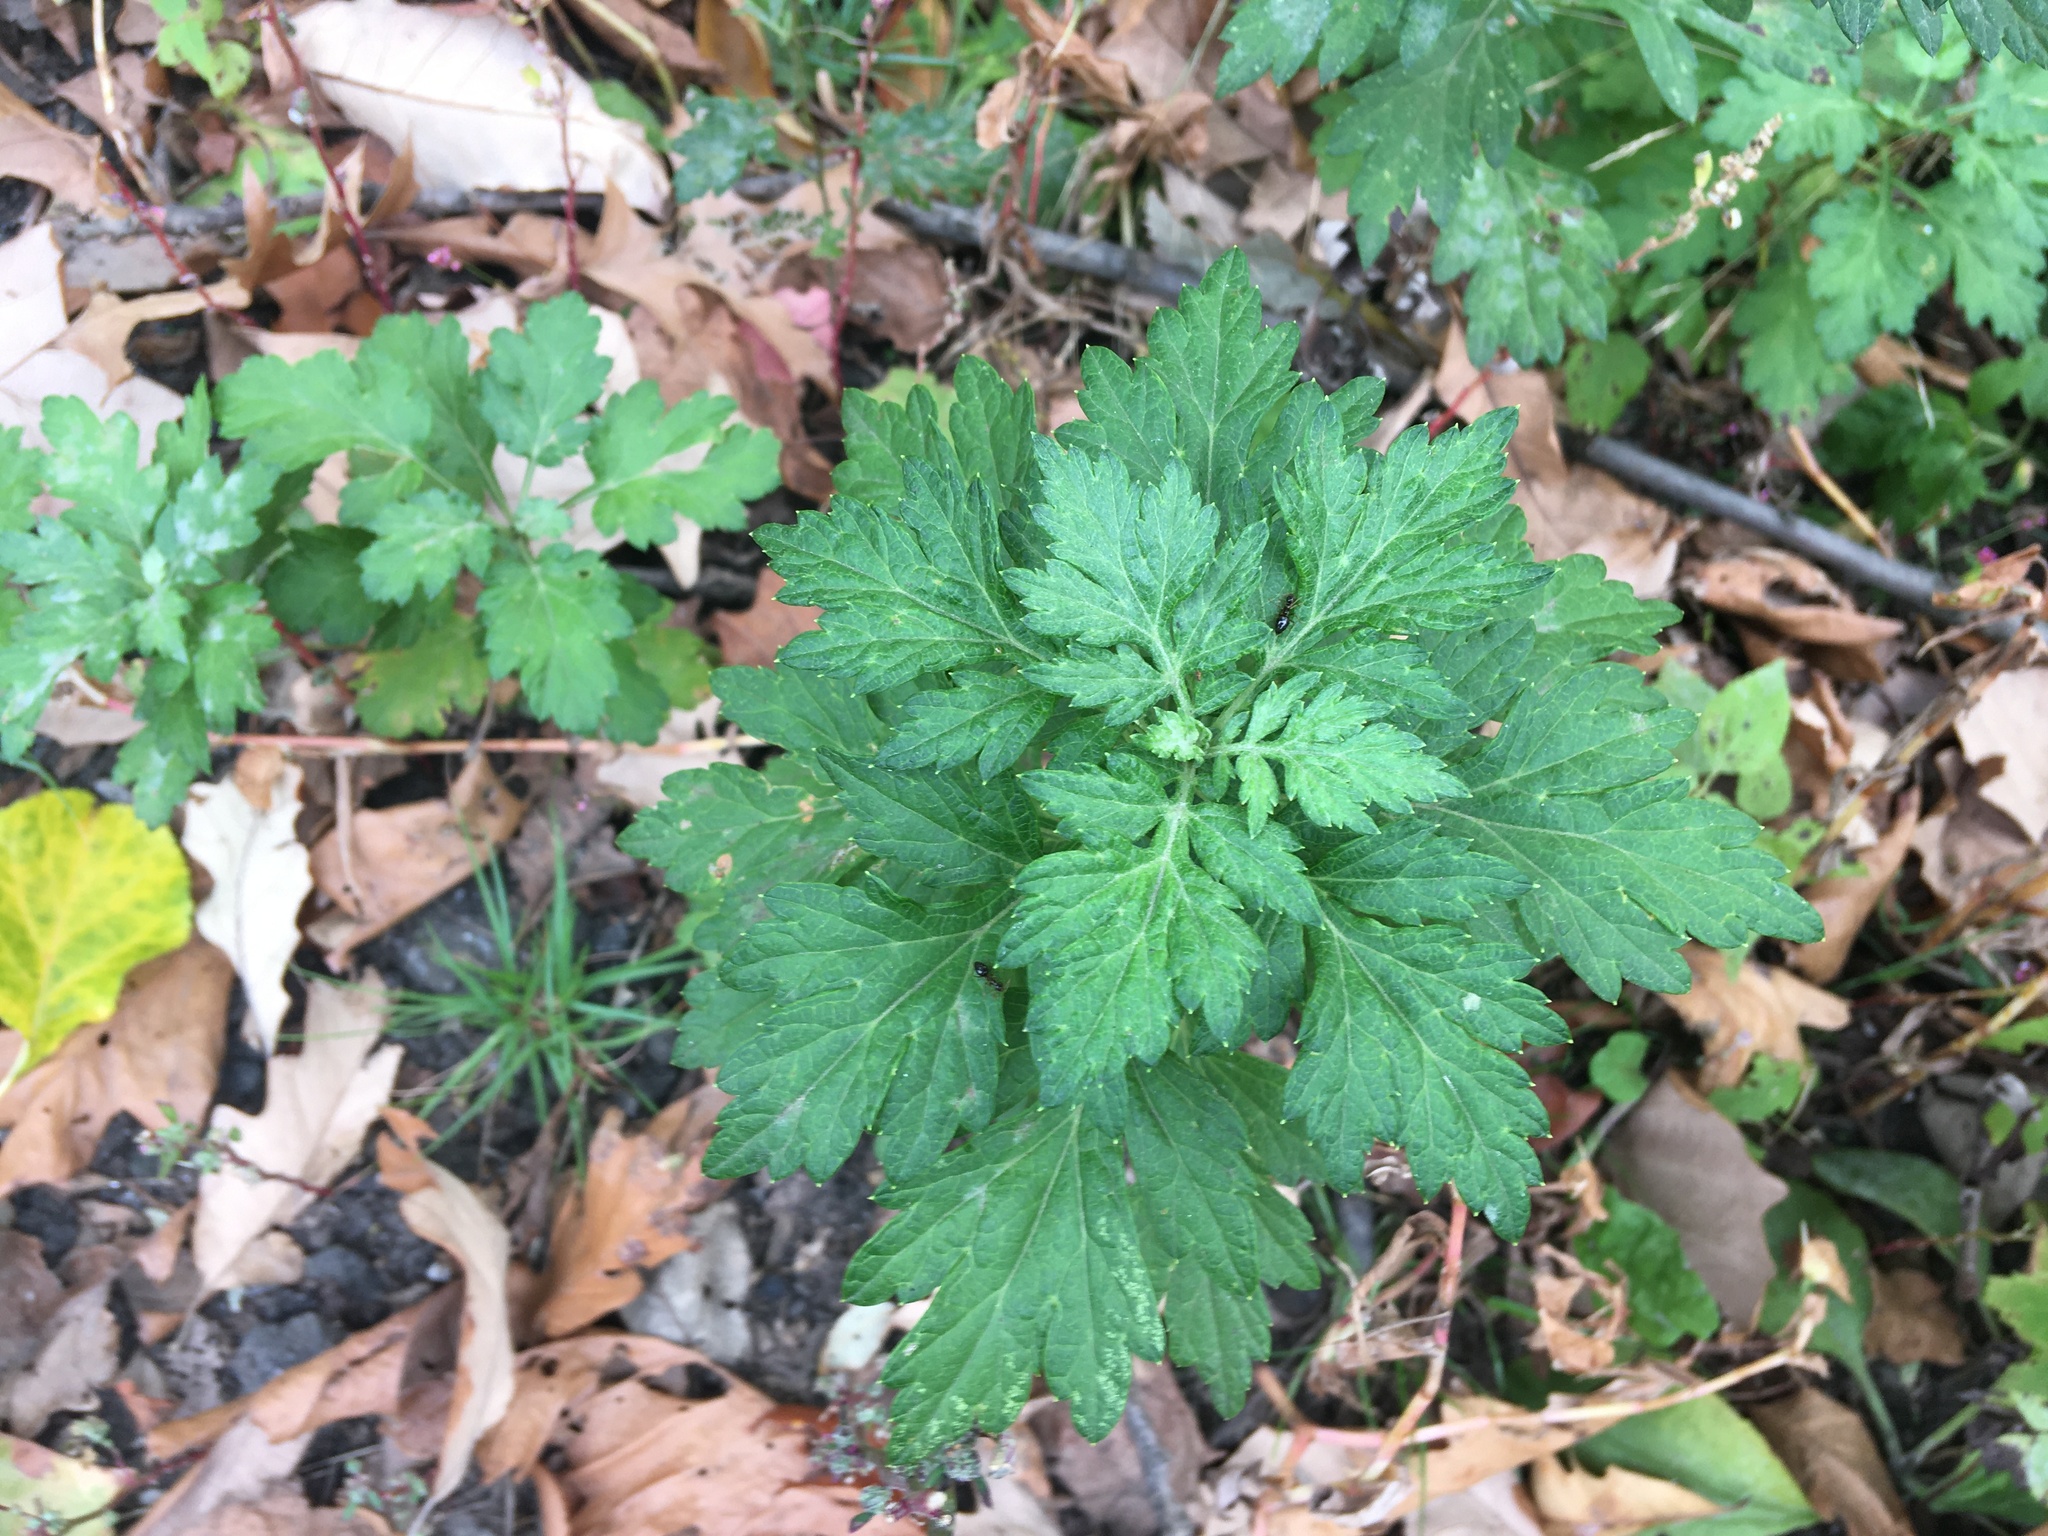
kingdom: Plantae
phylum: Tracheophyta
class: Magnoliopsida
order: Asterales
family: Asteraceae
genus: Artemisia
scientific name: Artemisia vulgaris
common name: Mugwort
